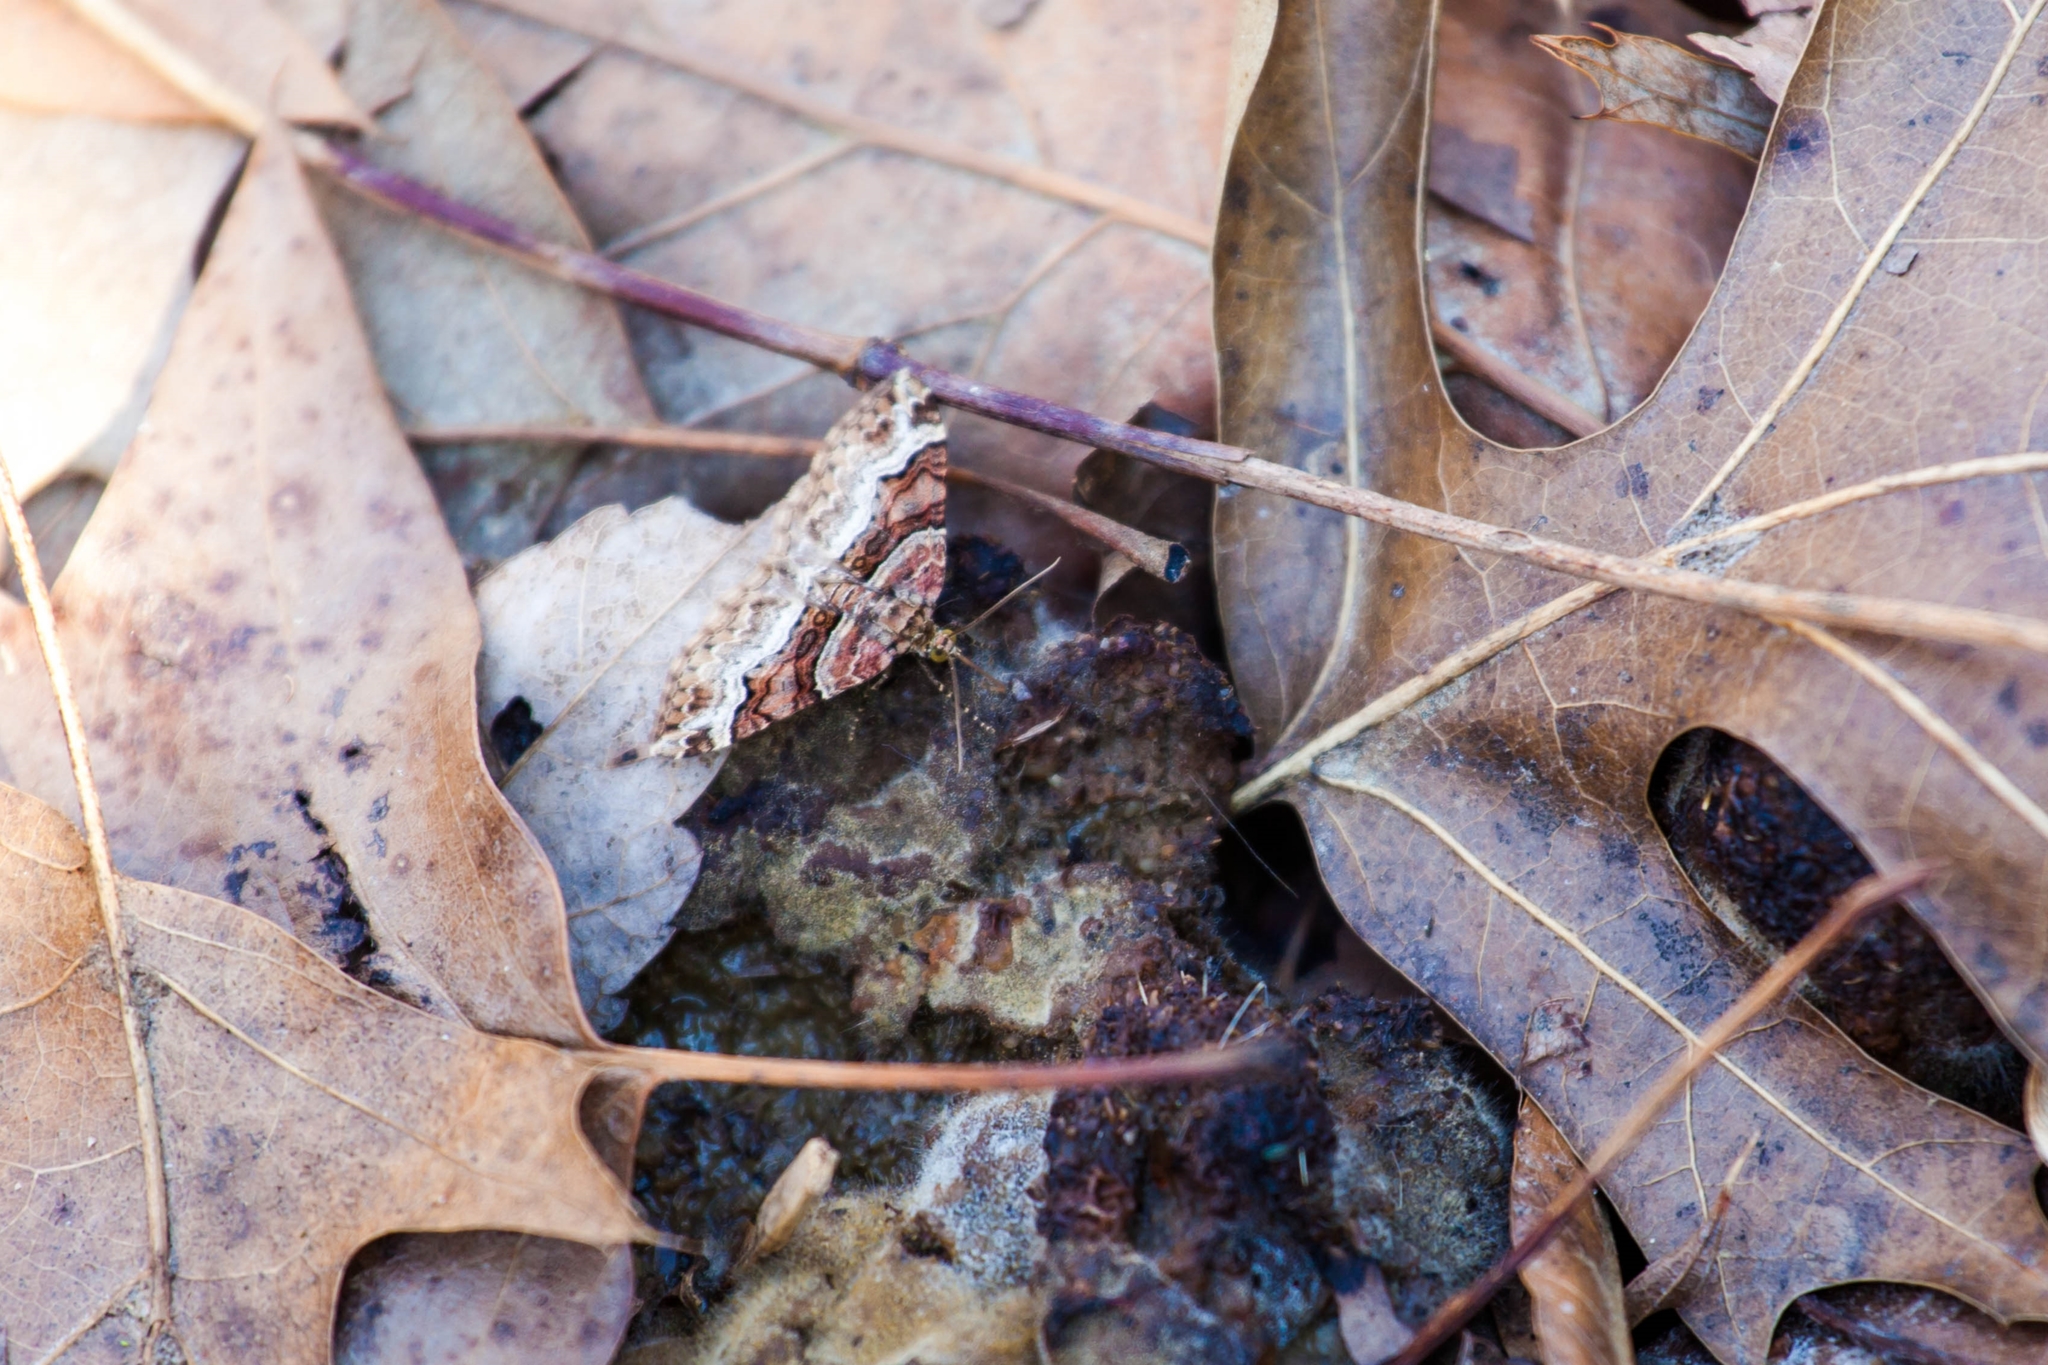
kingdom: Animalia
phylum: Arthropoda
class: Insecta
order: Lepidoptera
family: Geometridae
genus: Xanthorhoe
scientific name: Xanthorhoe lacustrata
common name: Toothed brown carpet
